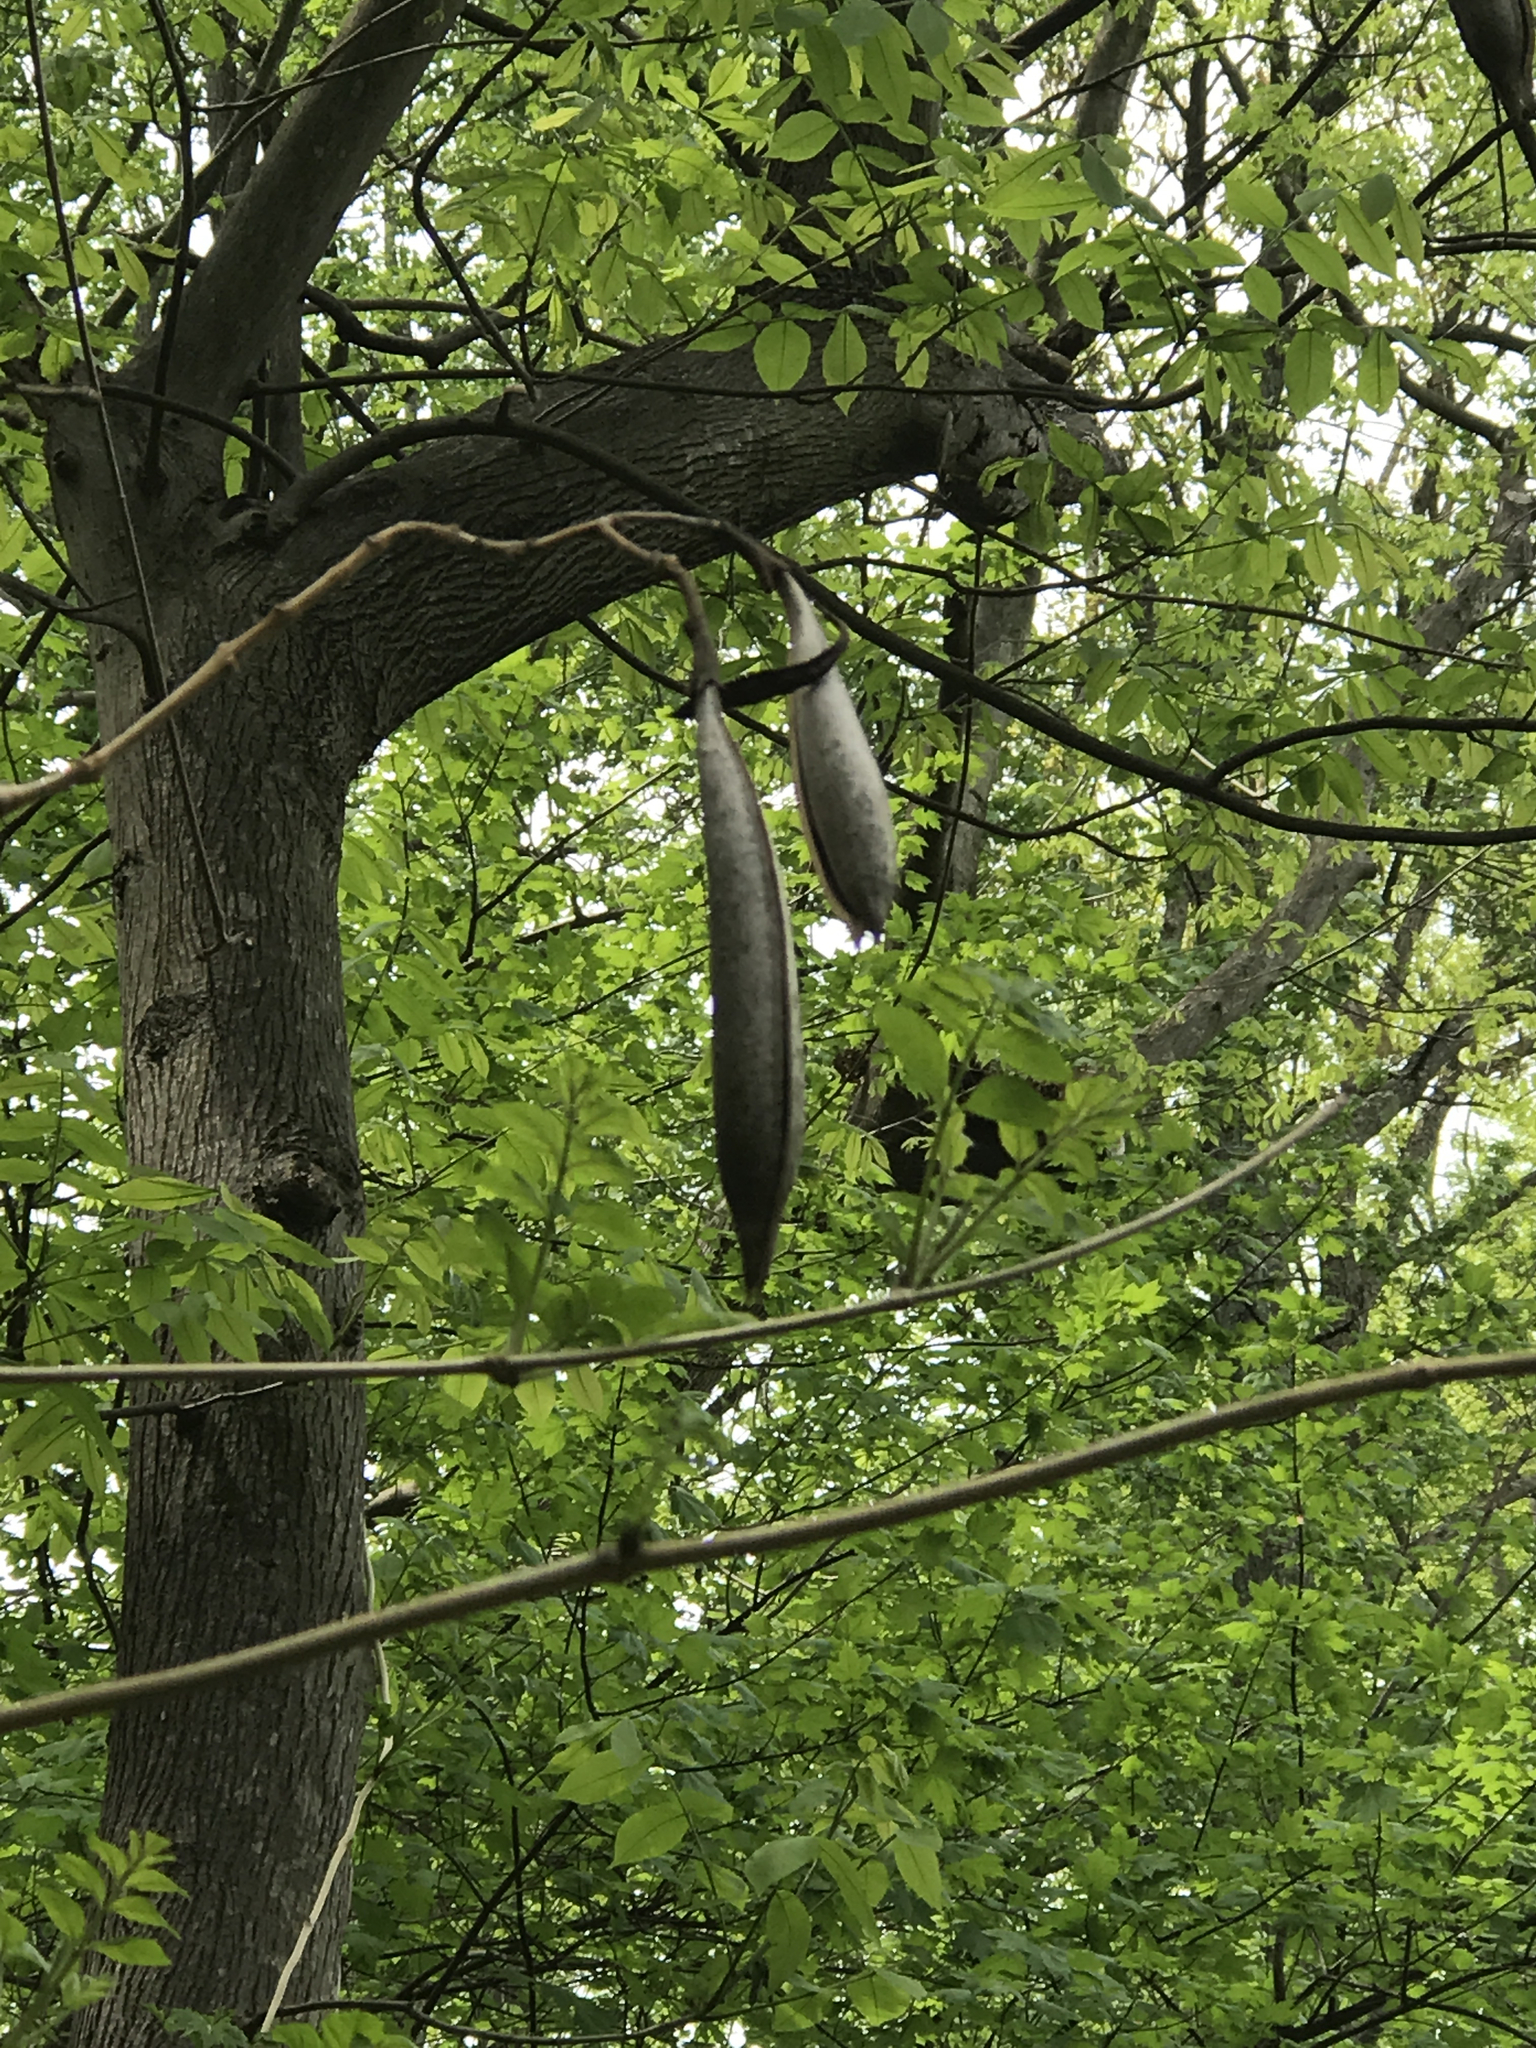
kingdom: Plantae
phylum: Tracheophyta
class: Magnoliopsida
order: Lamiales
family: Bignoniaceae
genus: Campsis
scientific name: Campsis radicans
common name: Trumpet-creeper
